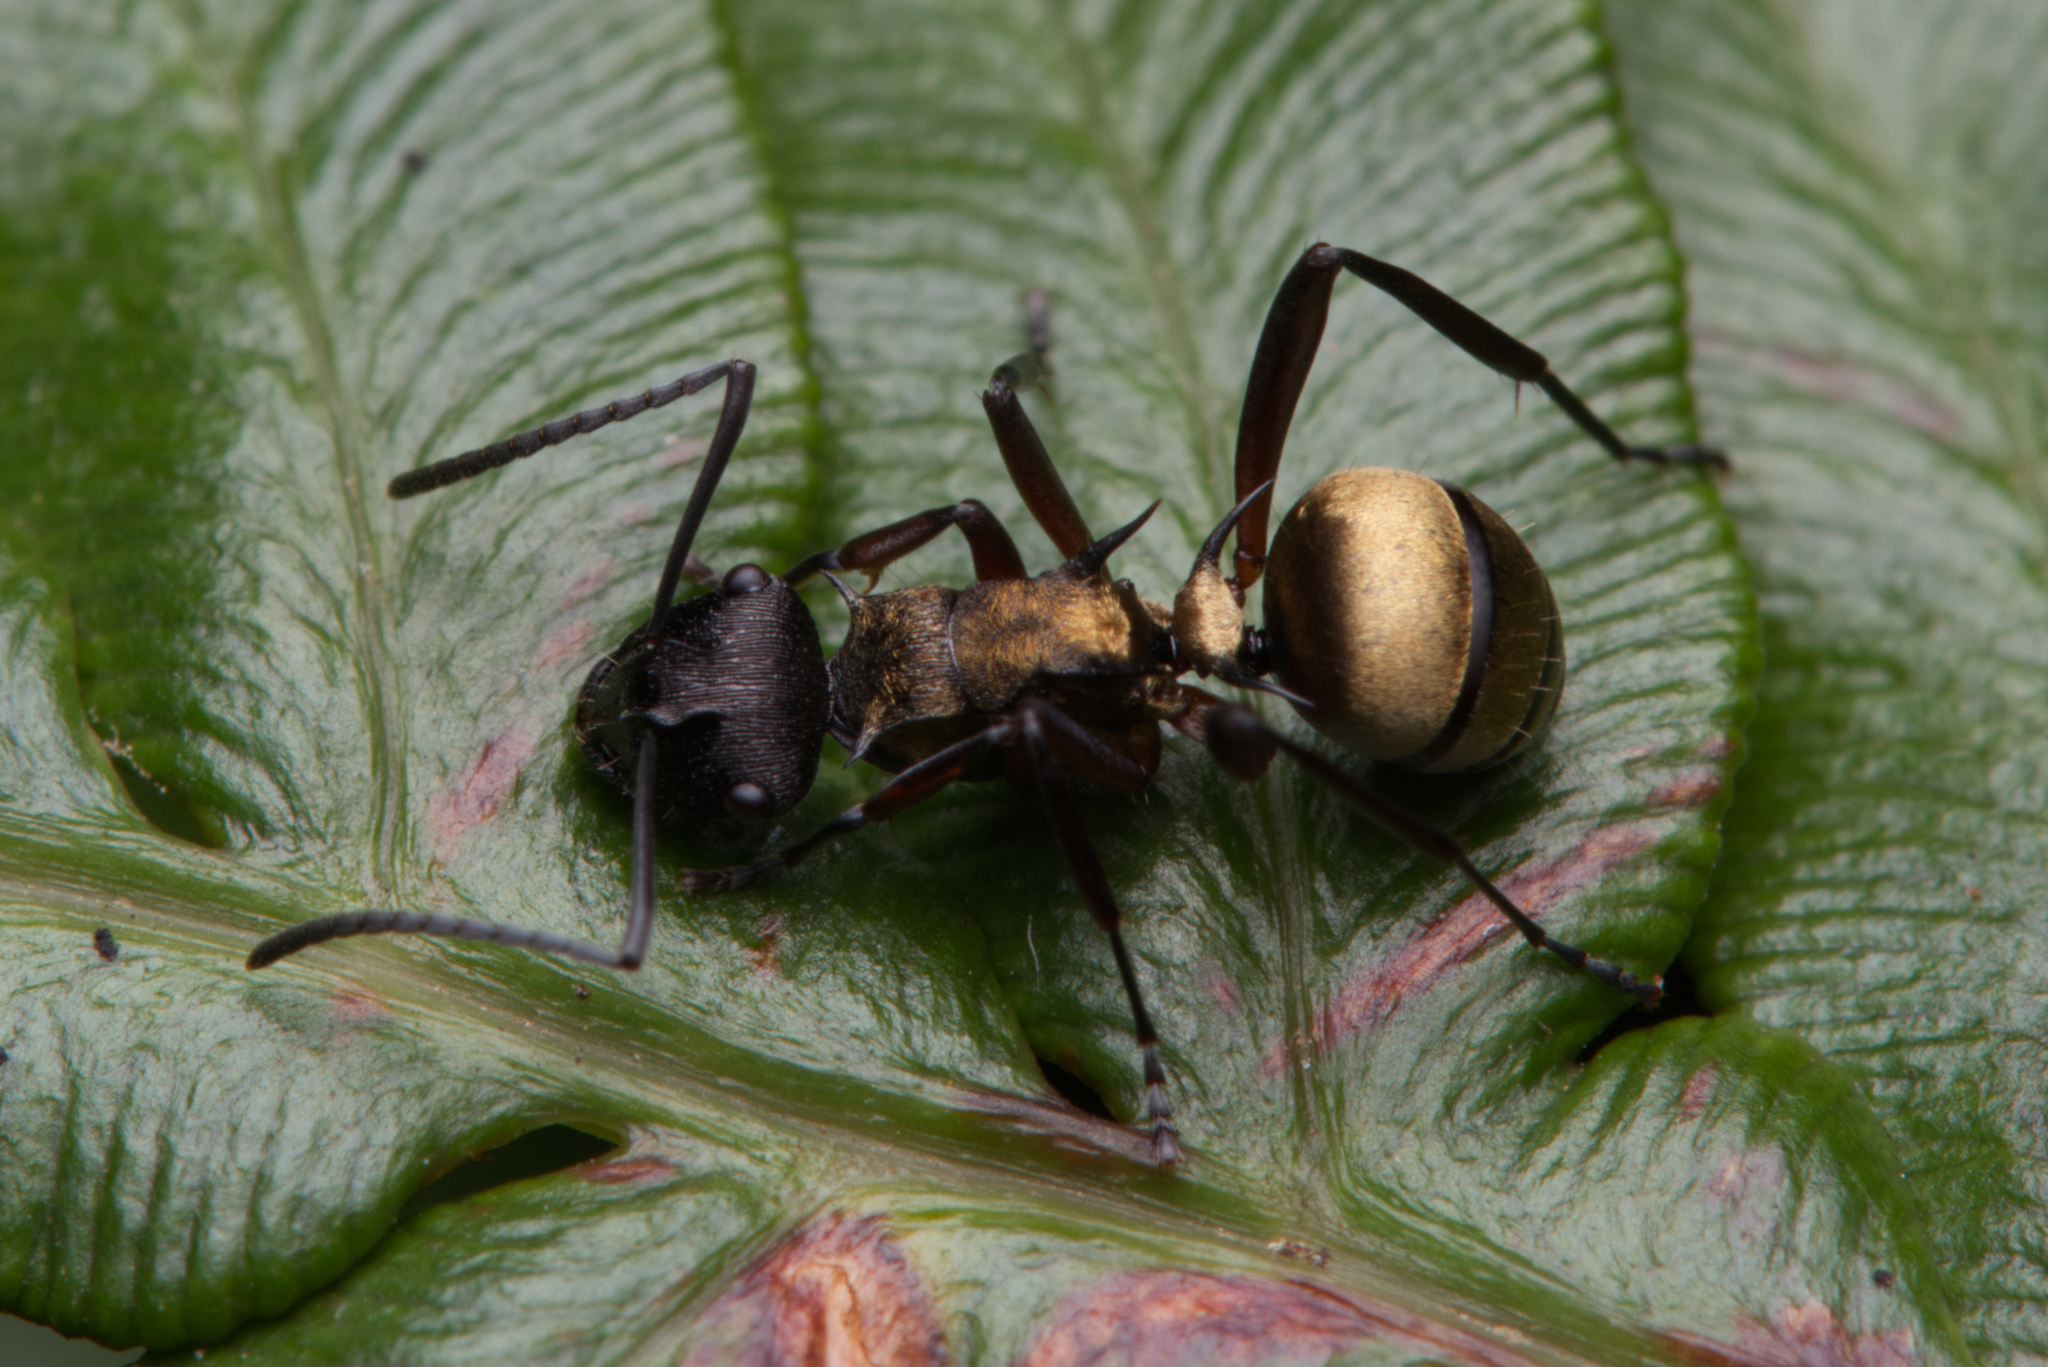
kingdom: Animalia
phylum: Arthropoda
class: Insecta
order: Hymenoptera
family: Formicidae
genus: Polyrhachis
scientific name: Polyrhachis rufifemur
